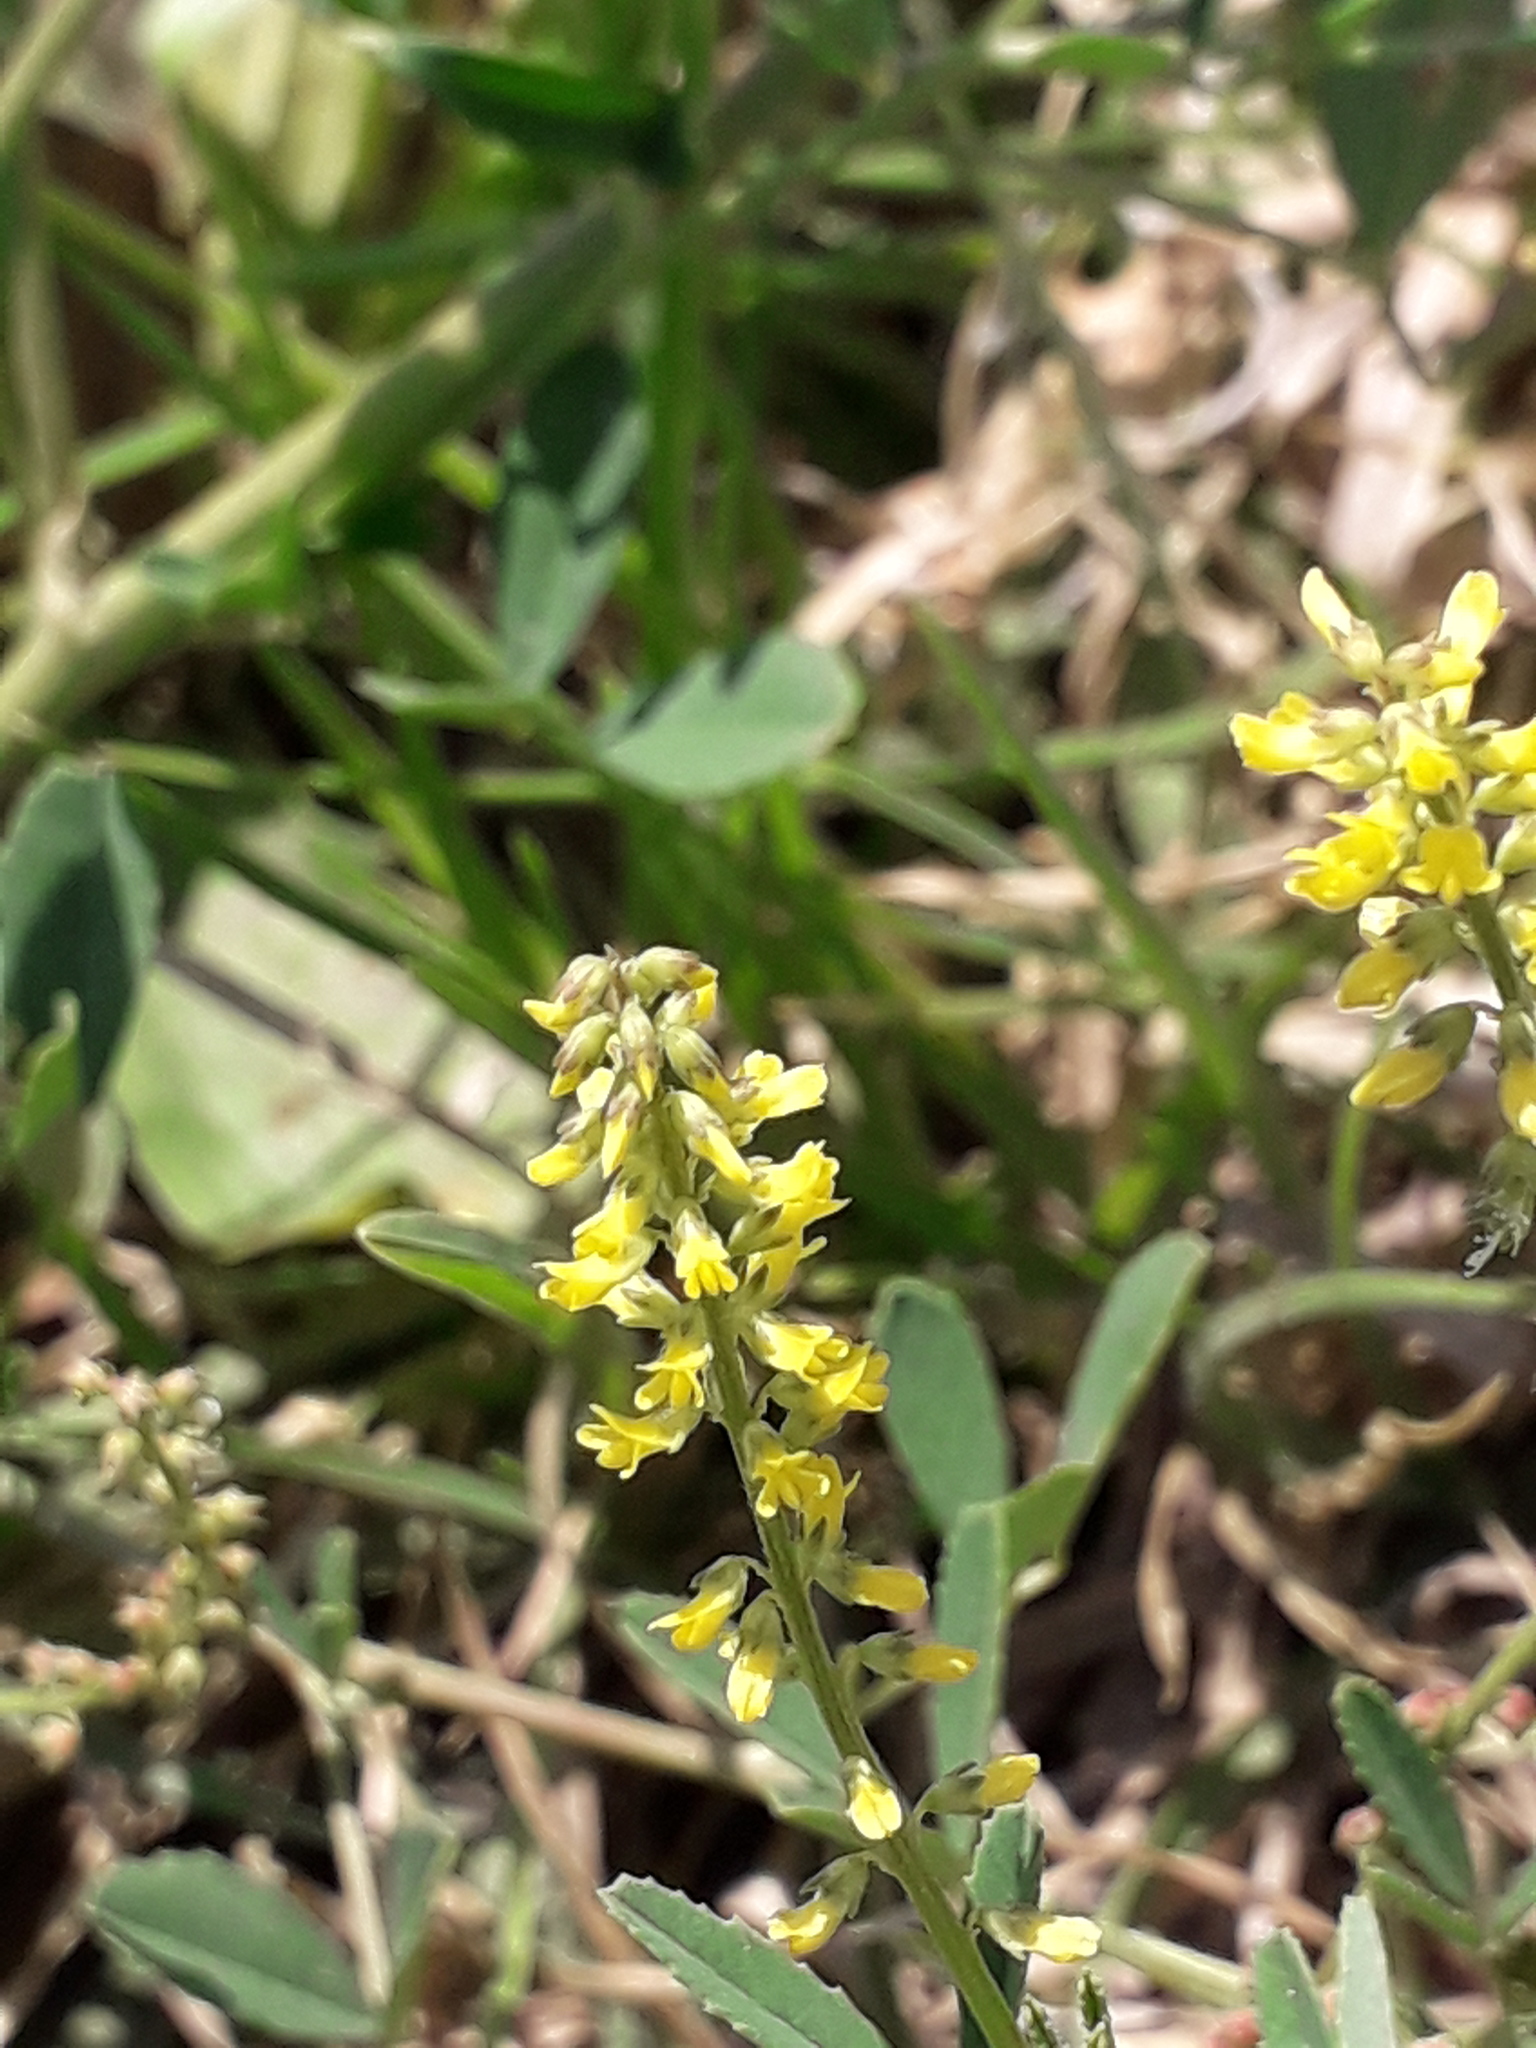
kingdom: Plantae
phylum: Tracheophyta
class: Magnoliopsida
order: Fabales
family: Fabaceae
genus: Melilotus
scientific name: Melilotus officinalis
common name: Sweetclover
